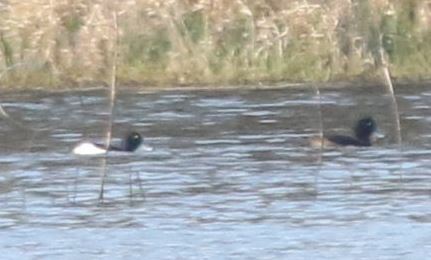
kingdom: Animalia
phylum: Chordata
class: Aves
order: Anseriformes
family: Anatidae
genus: Aythya
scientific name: Aythya fuligula
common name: Tufted duck
